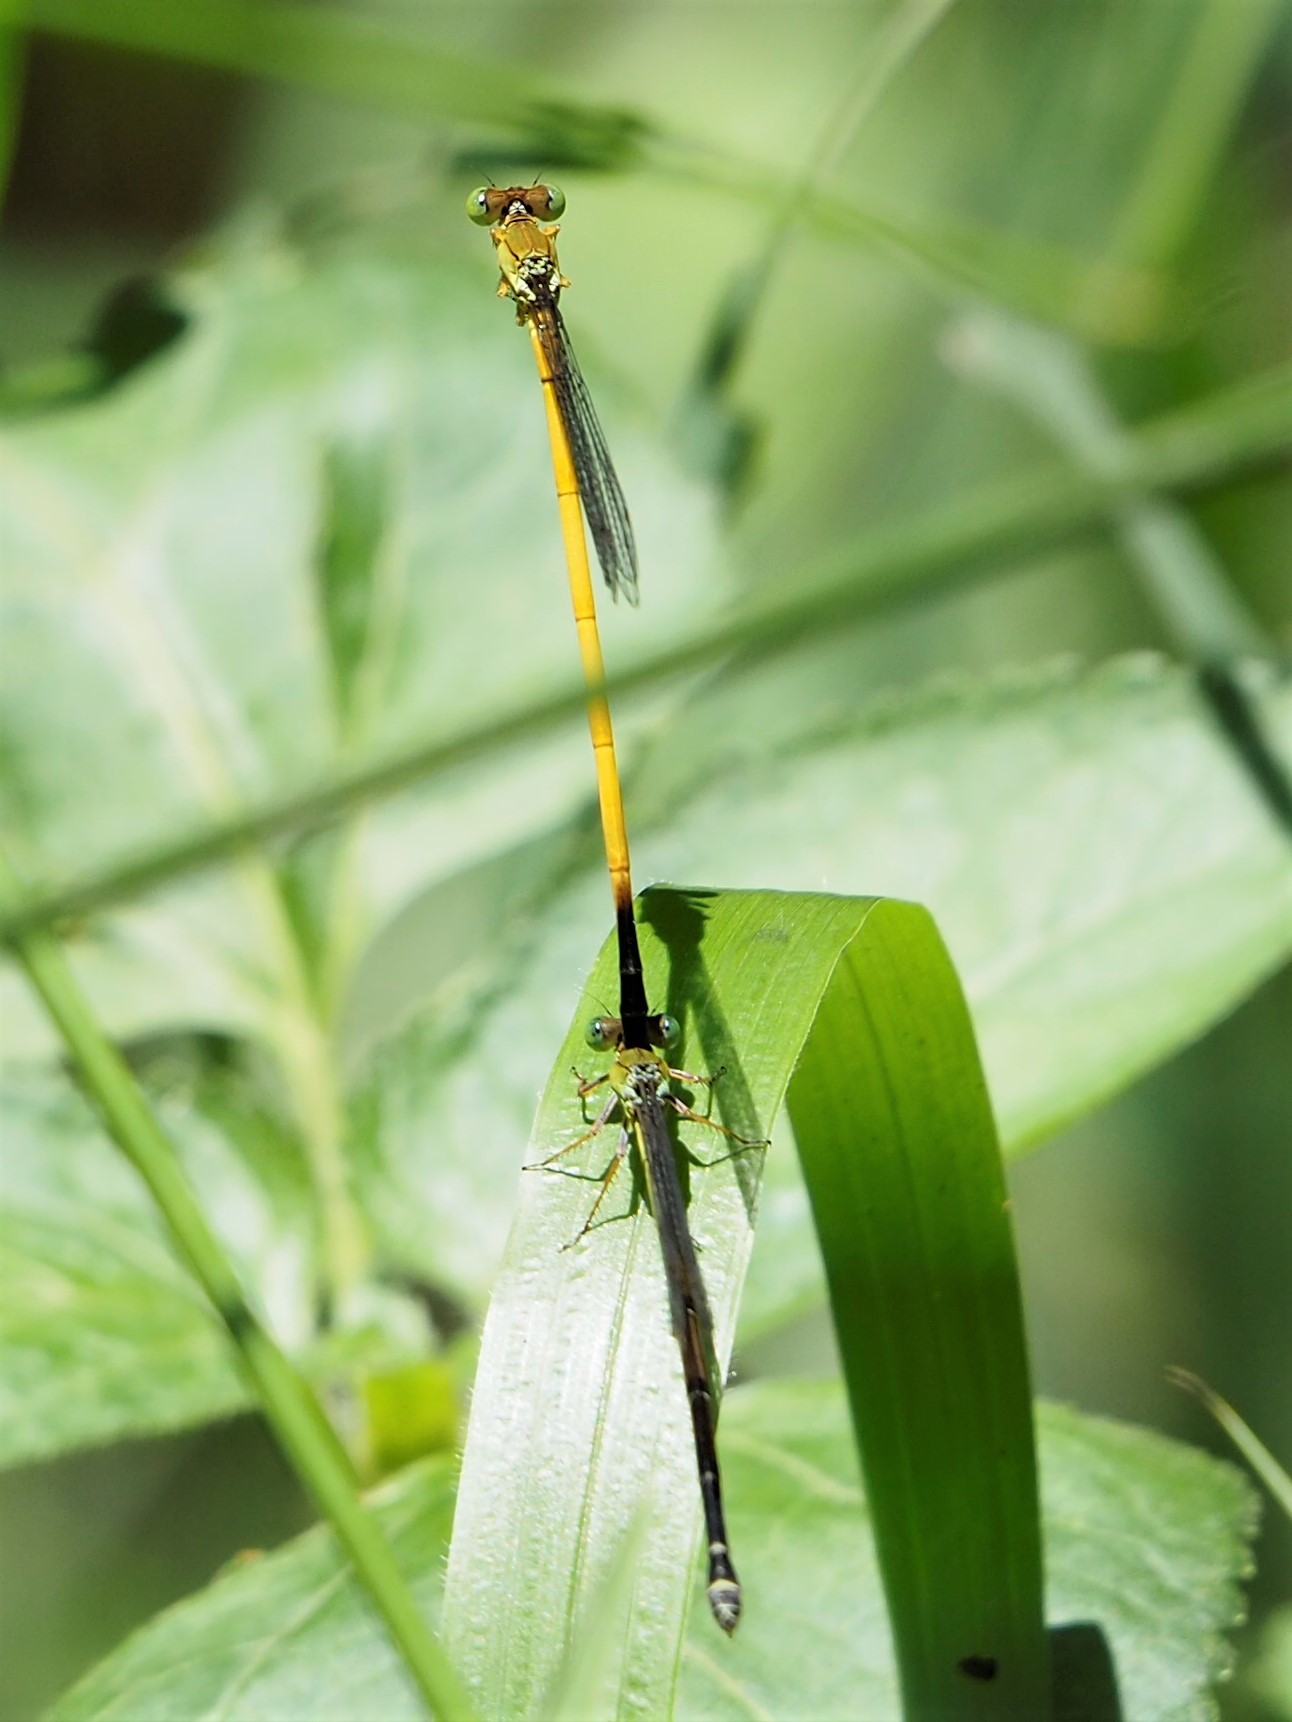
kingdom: Animalia
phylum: Arthropoda
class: Insecta
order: Odonata
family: Coenagrionidae
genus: Ceriagrion
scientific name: Ceriagrion fallax
